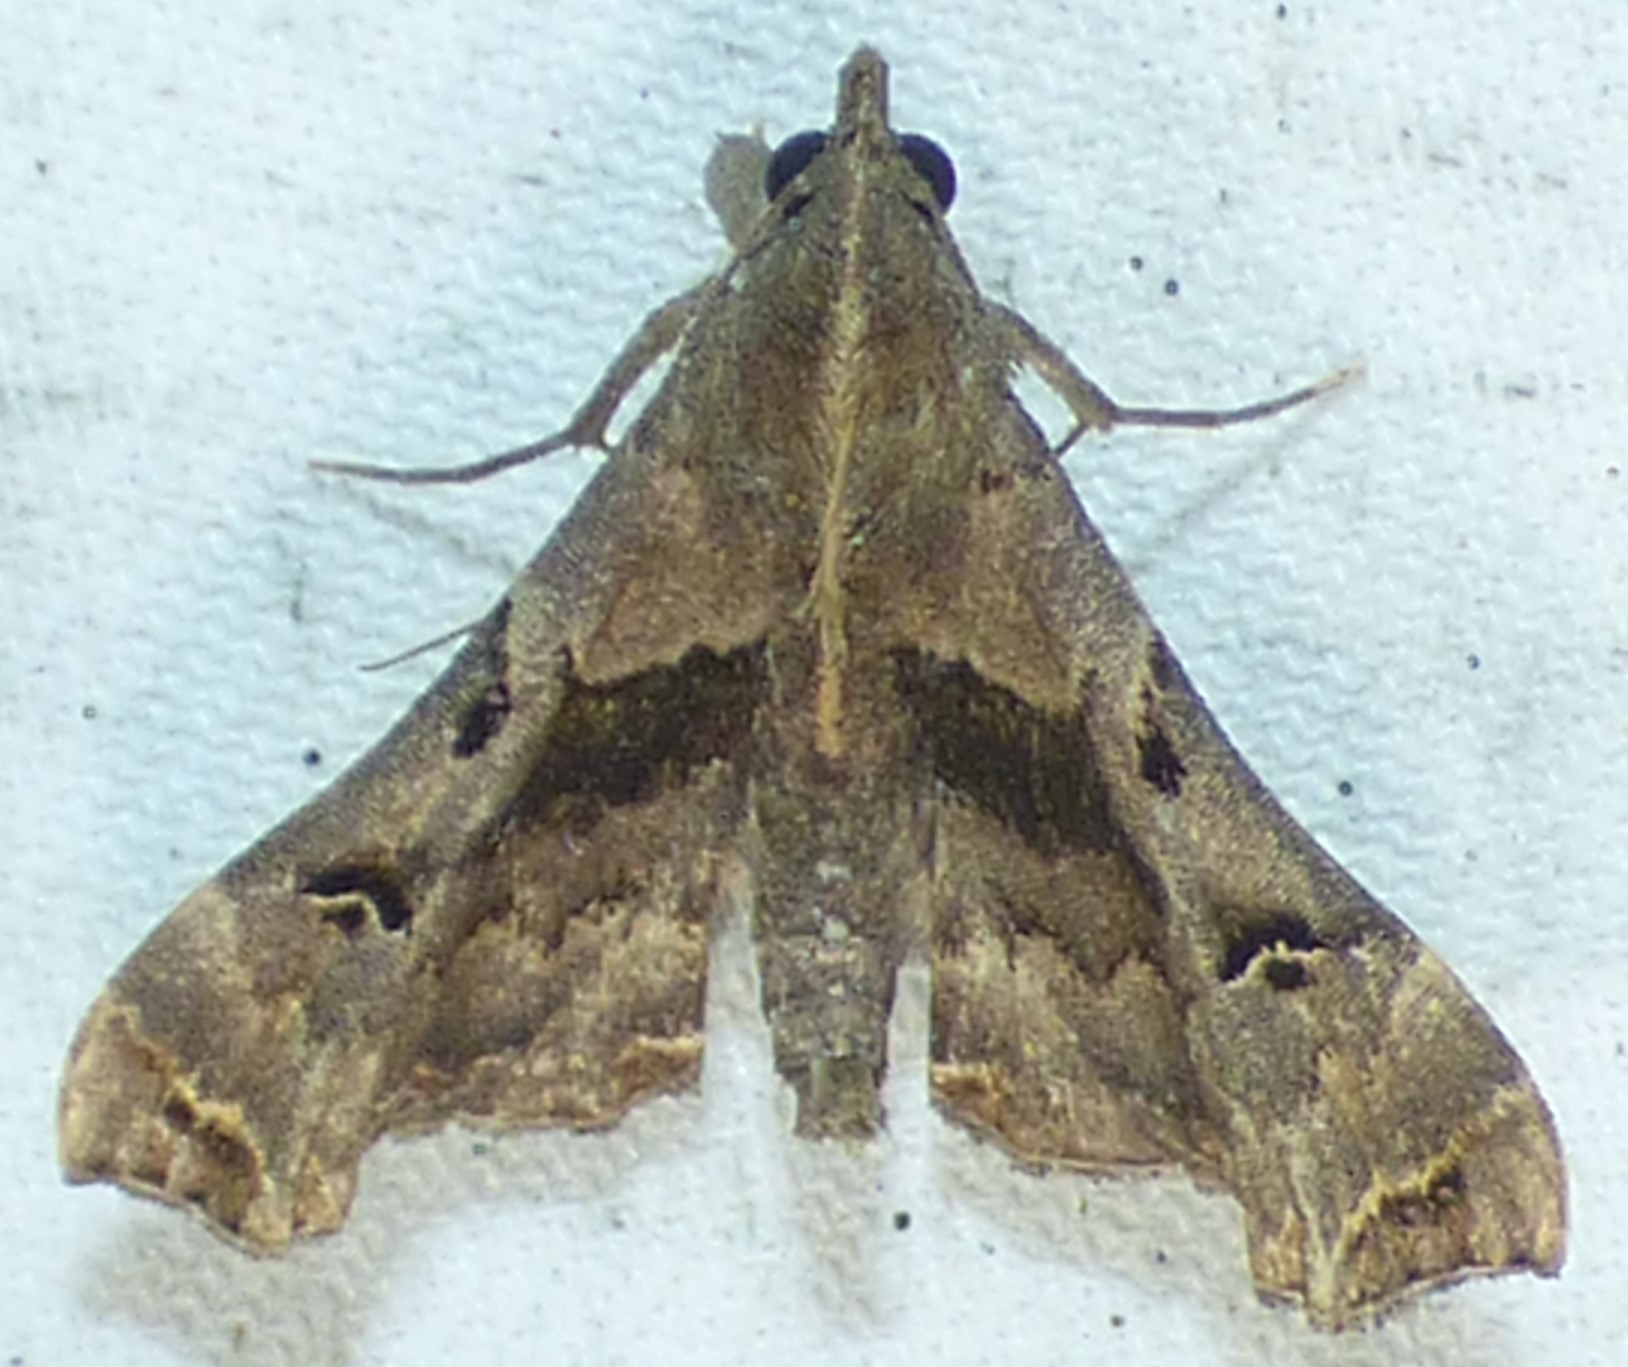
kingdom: Animalia
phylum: Arthropoda
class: Insecta
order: Lepidoptera
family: Erebidae
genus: Palthis
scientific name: Palthis asopialis
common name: Faint-spotted palthis moth
